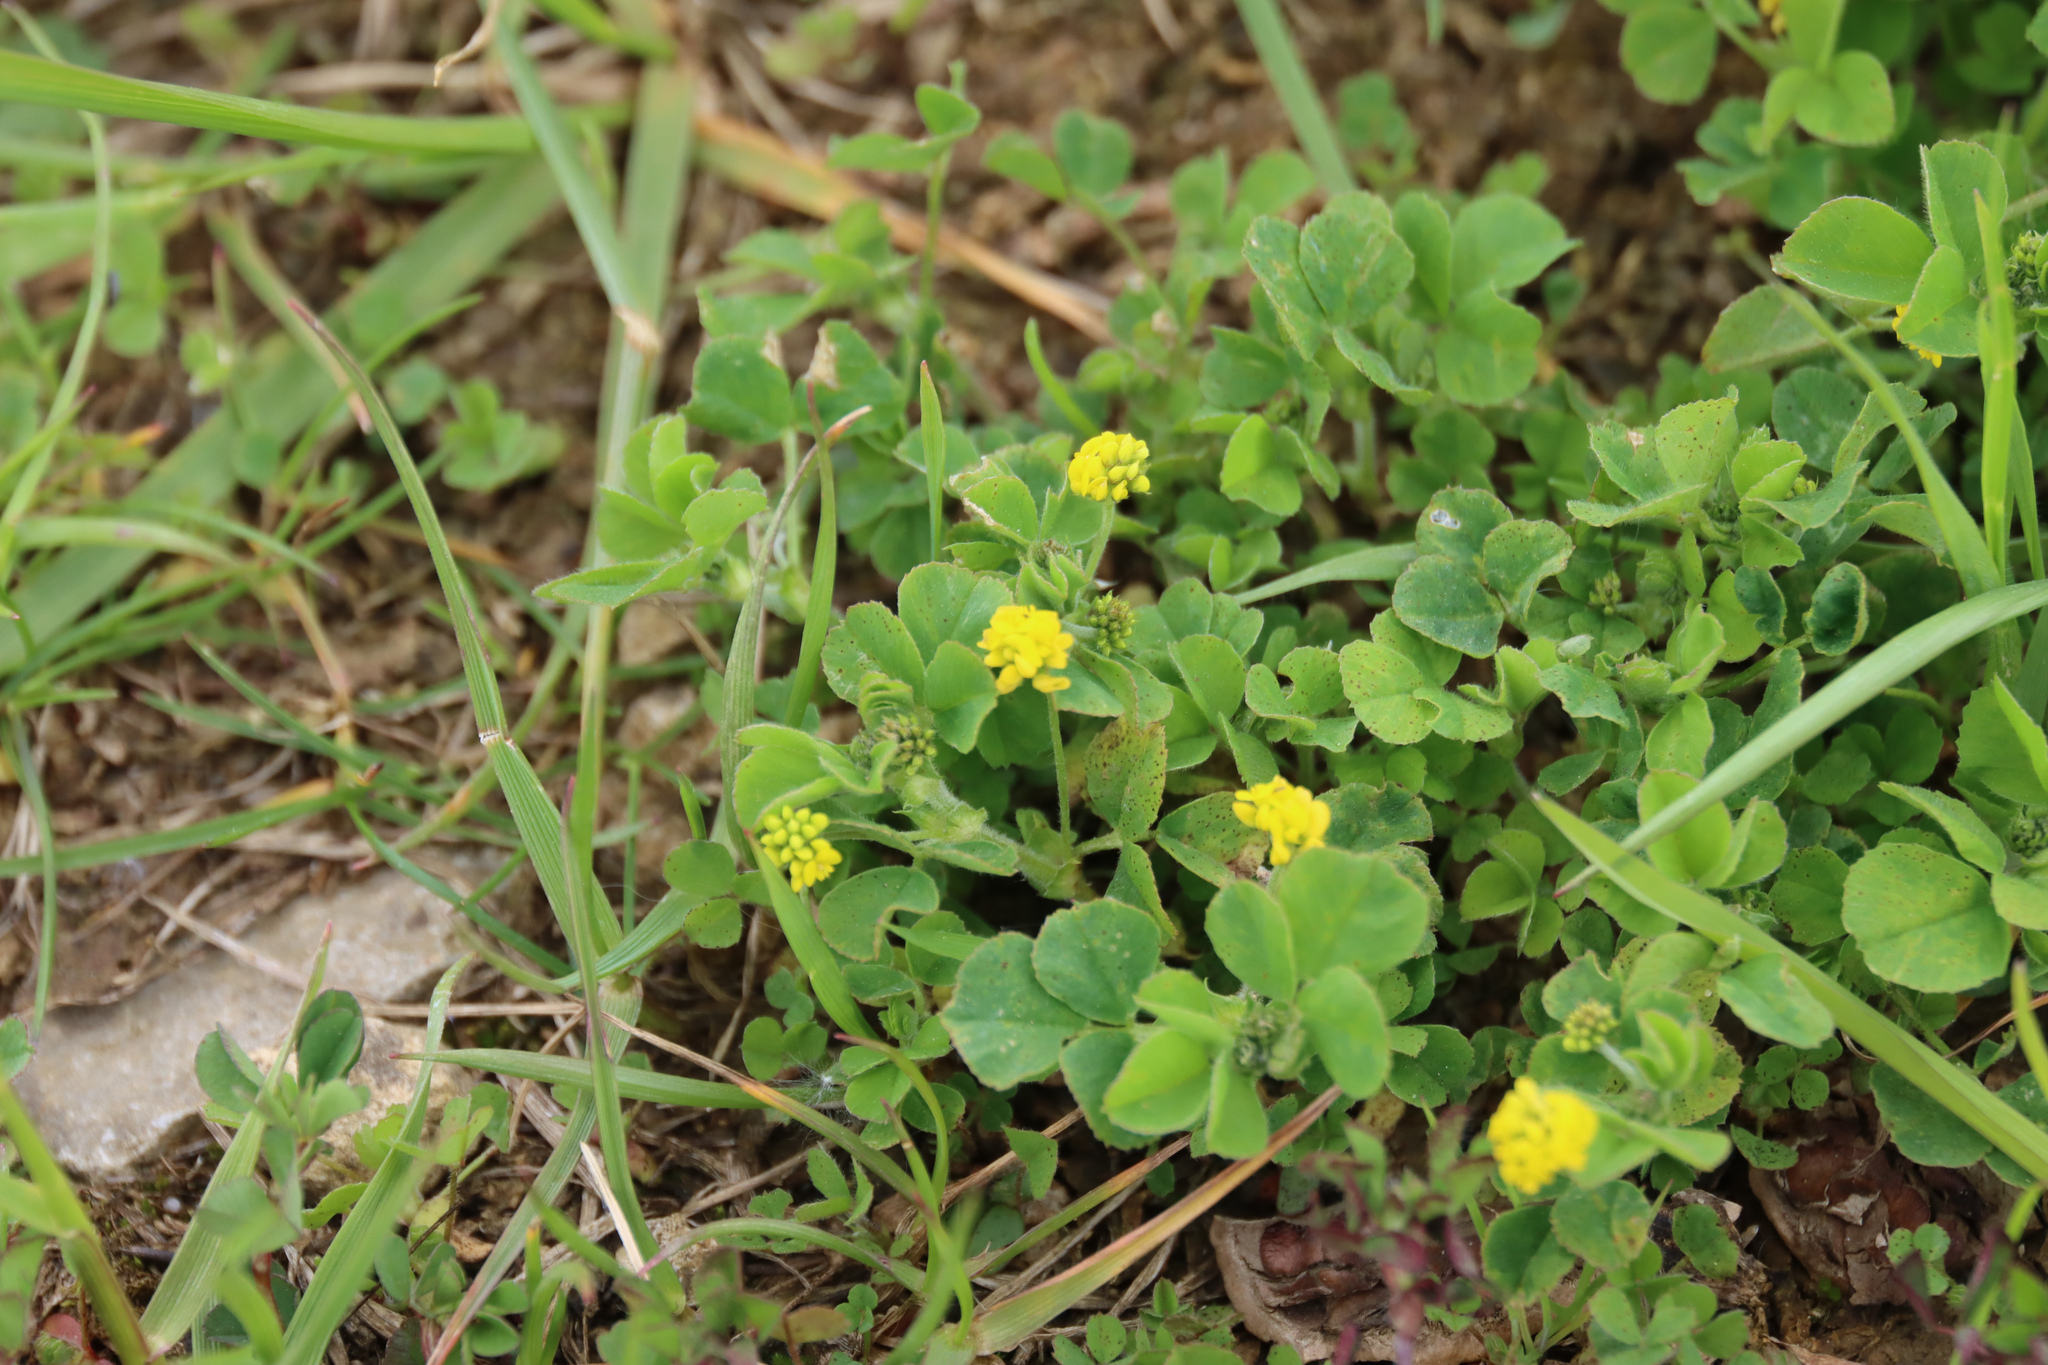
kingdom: Plantae
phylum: Tracheophyta
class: Magnoliopsida
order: Fabales
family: Fabaceae
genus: Medicago
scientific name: Medicago lupulina
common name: Black medick
